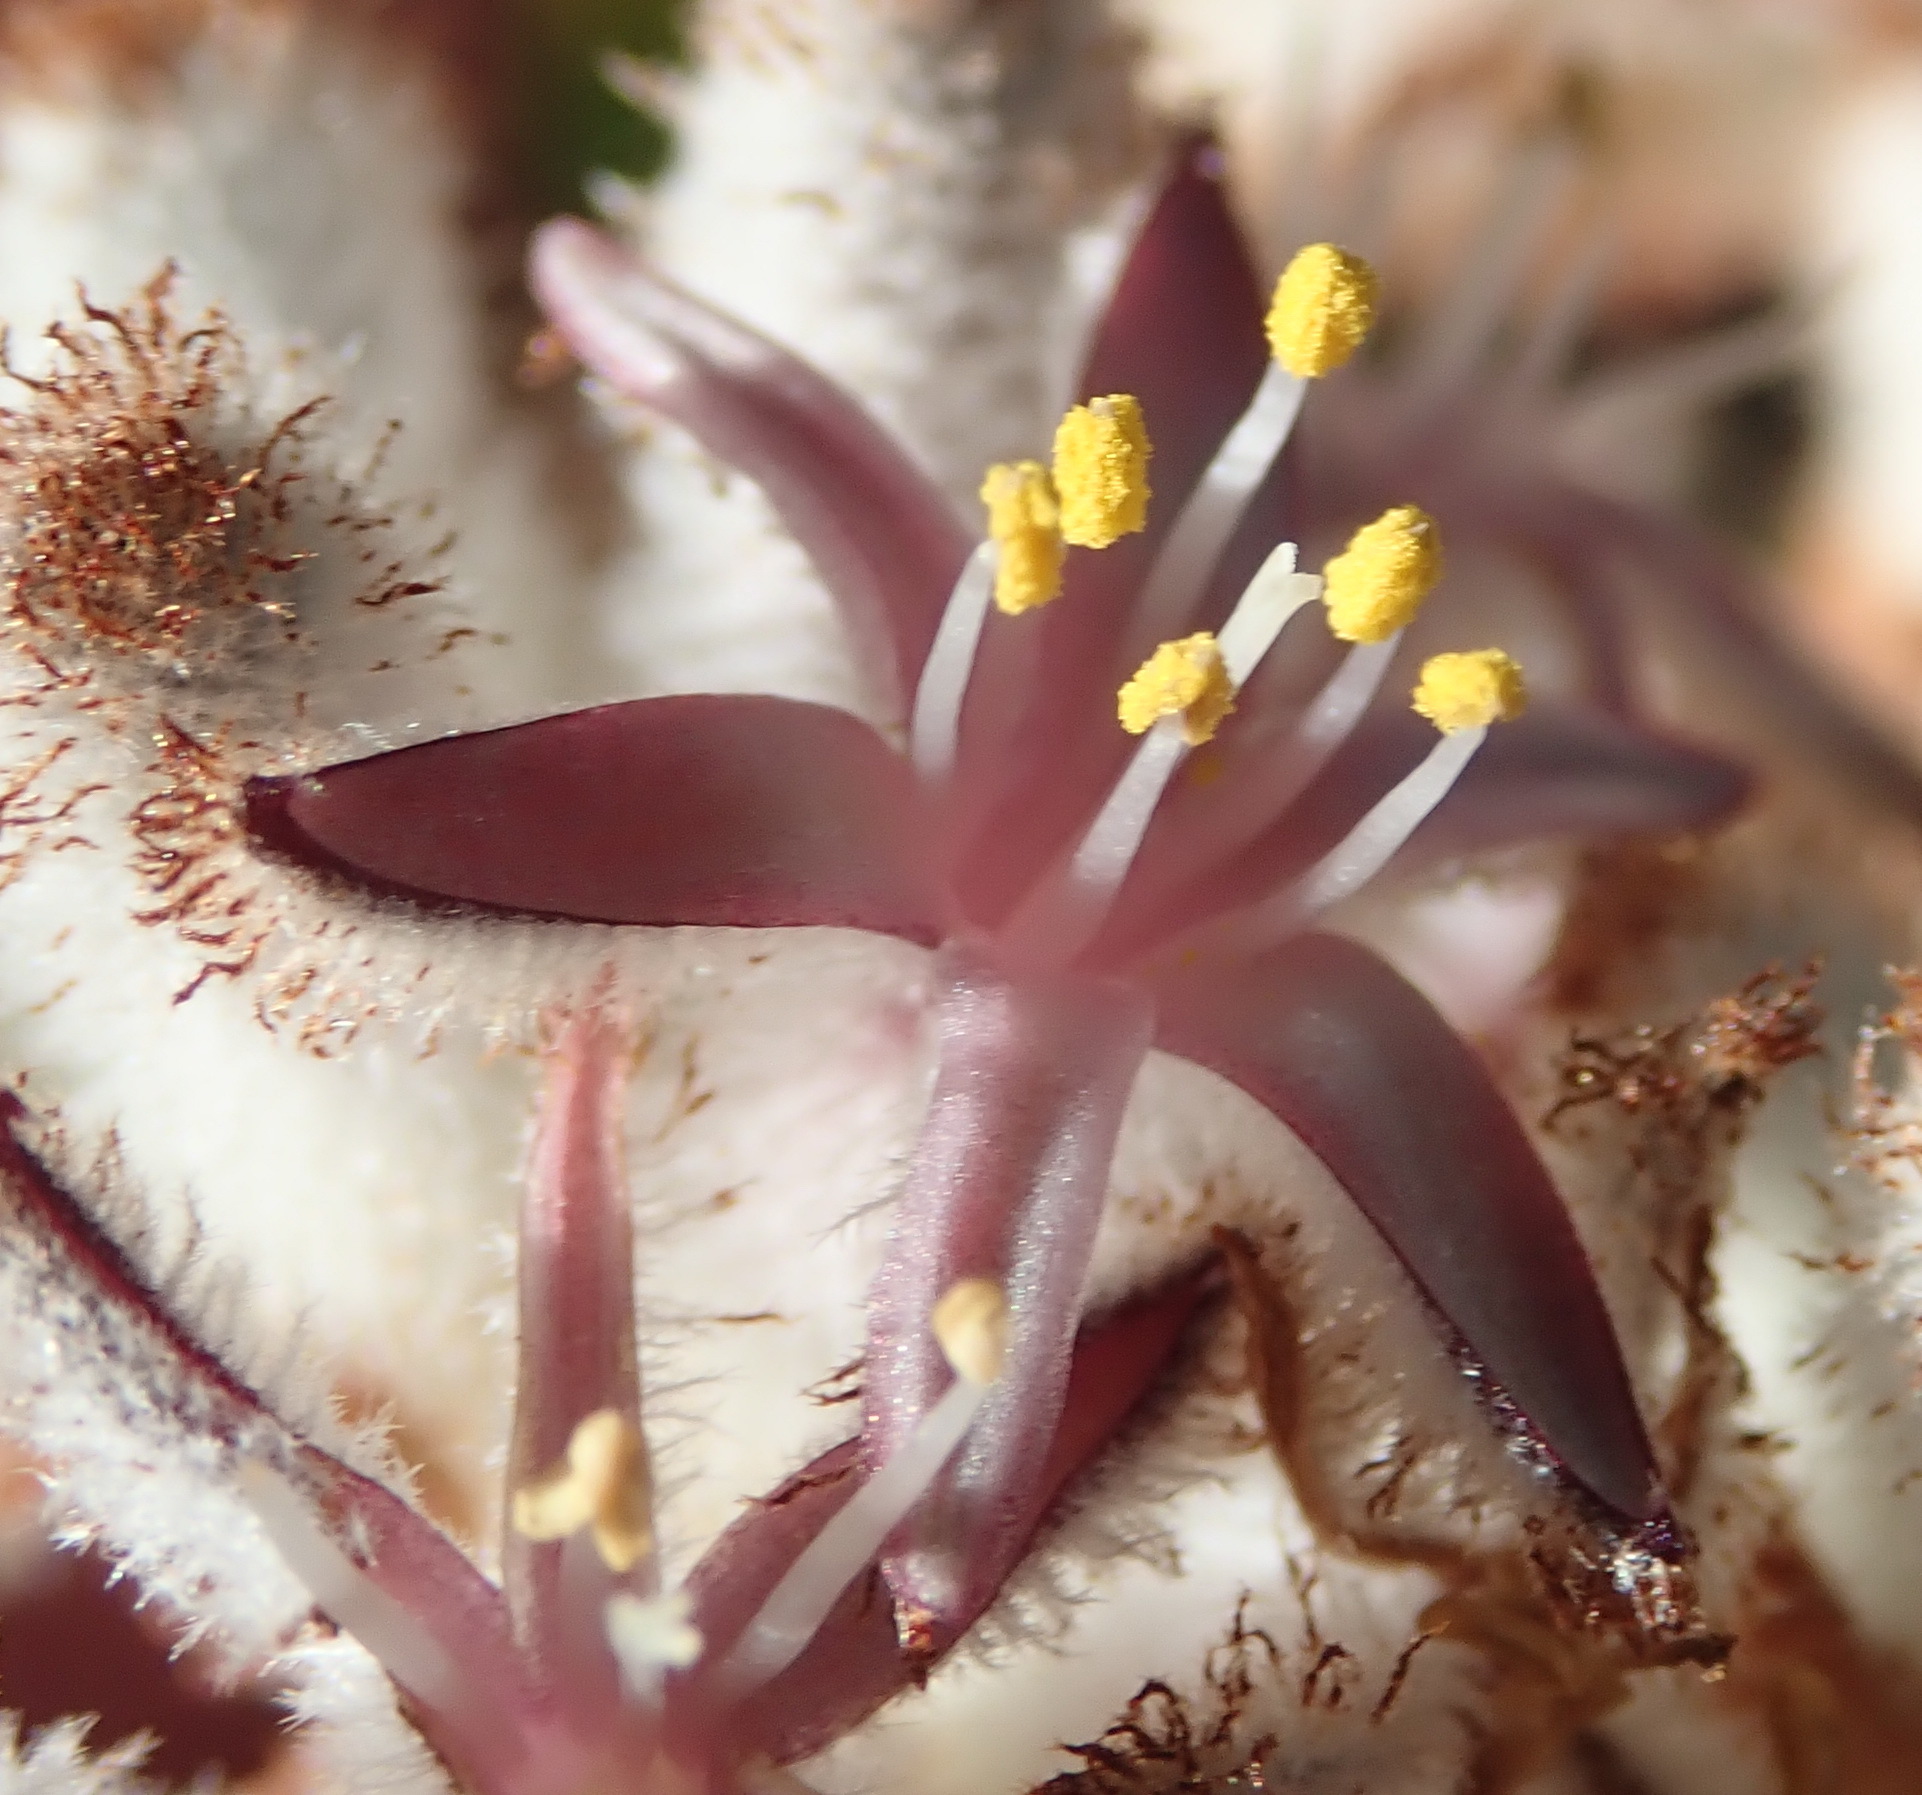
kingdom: Plantae
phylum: Tracheophyta
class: Liliopsida
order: Asparagales
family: Lanariaceae
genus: Lanaria
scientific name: Lanaria lanata
